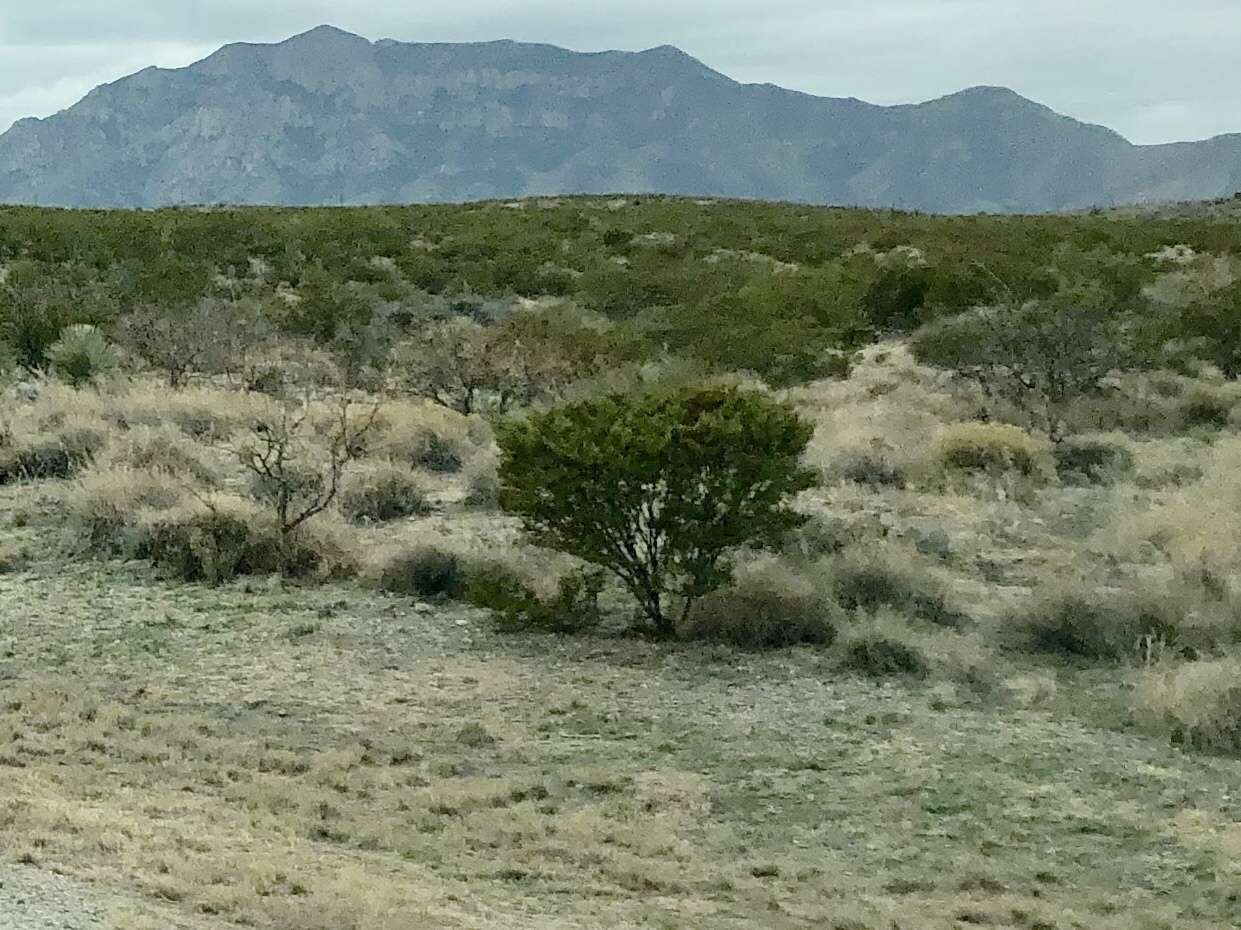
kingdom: Plantae
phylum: Tracheophyta
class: Magnoliopsida
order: Zygophyllales
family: Zygophyllaceae
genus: Larrea
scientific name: Larrea tridentata
